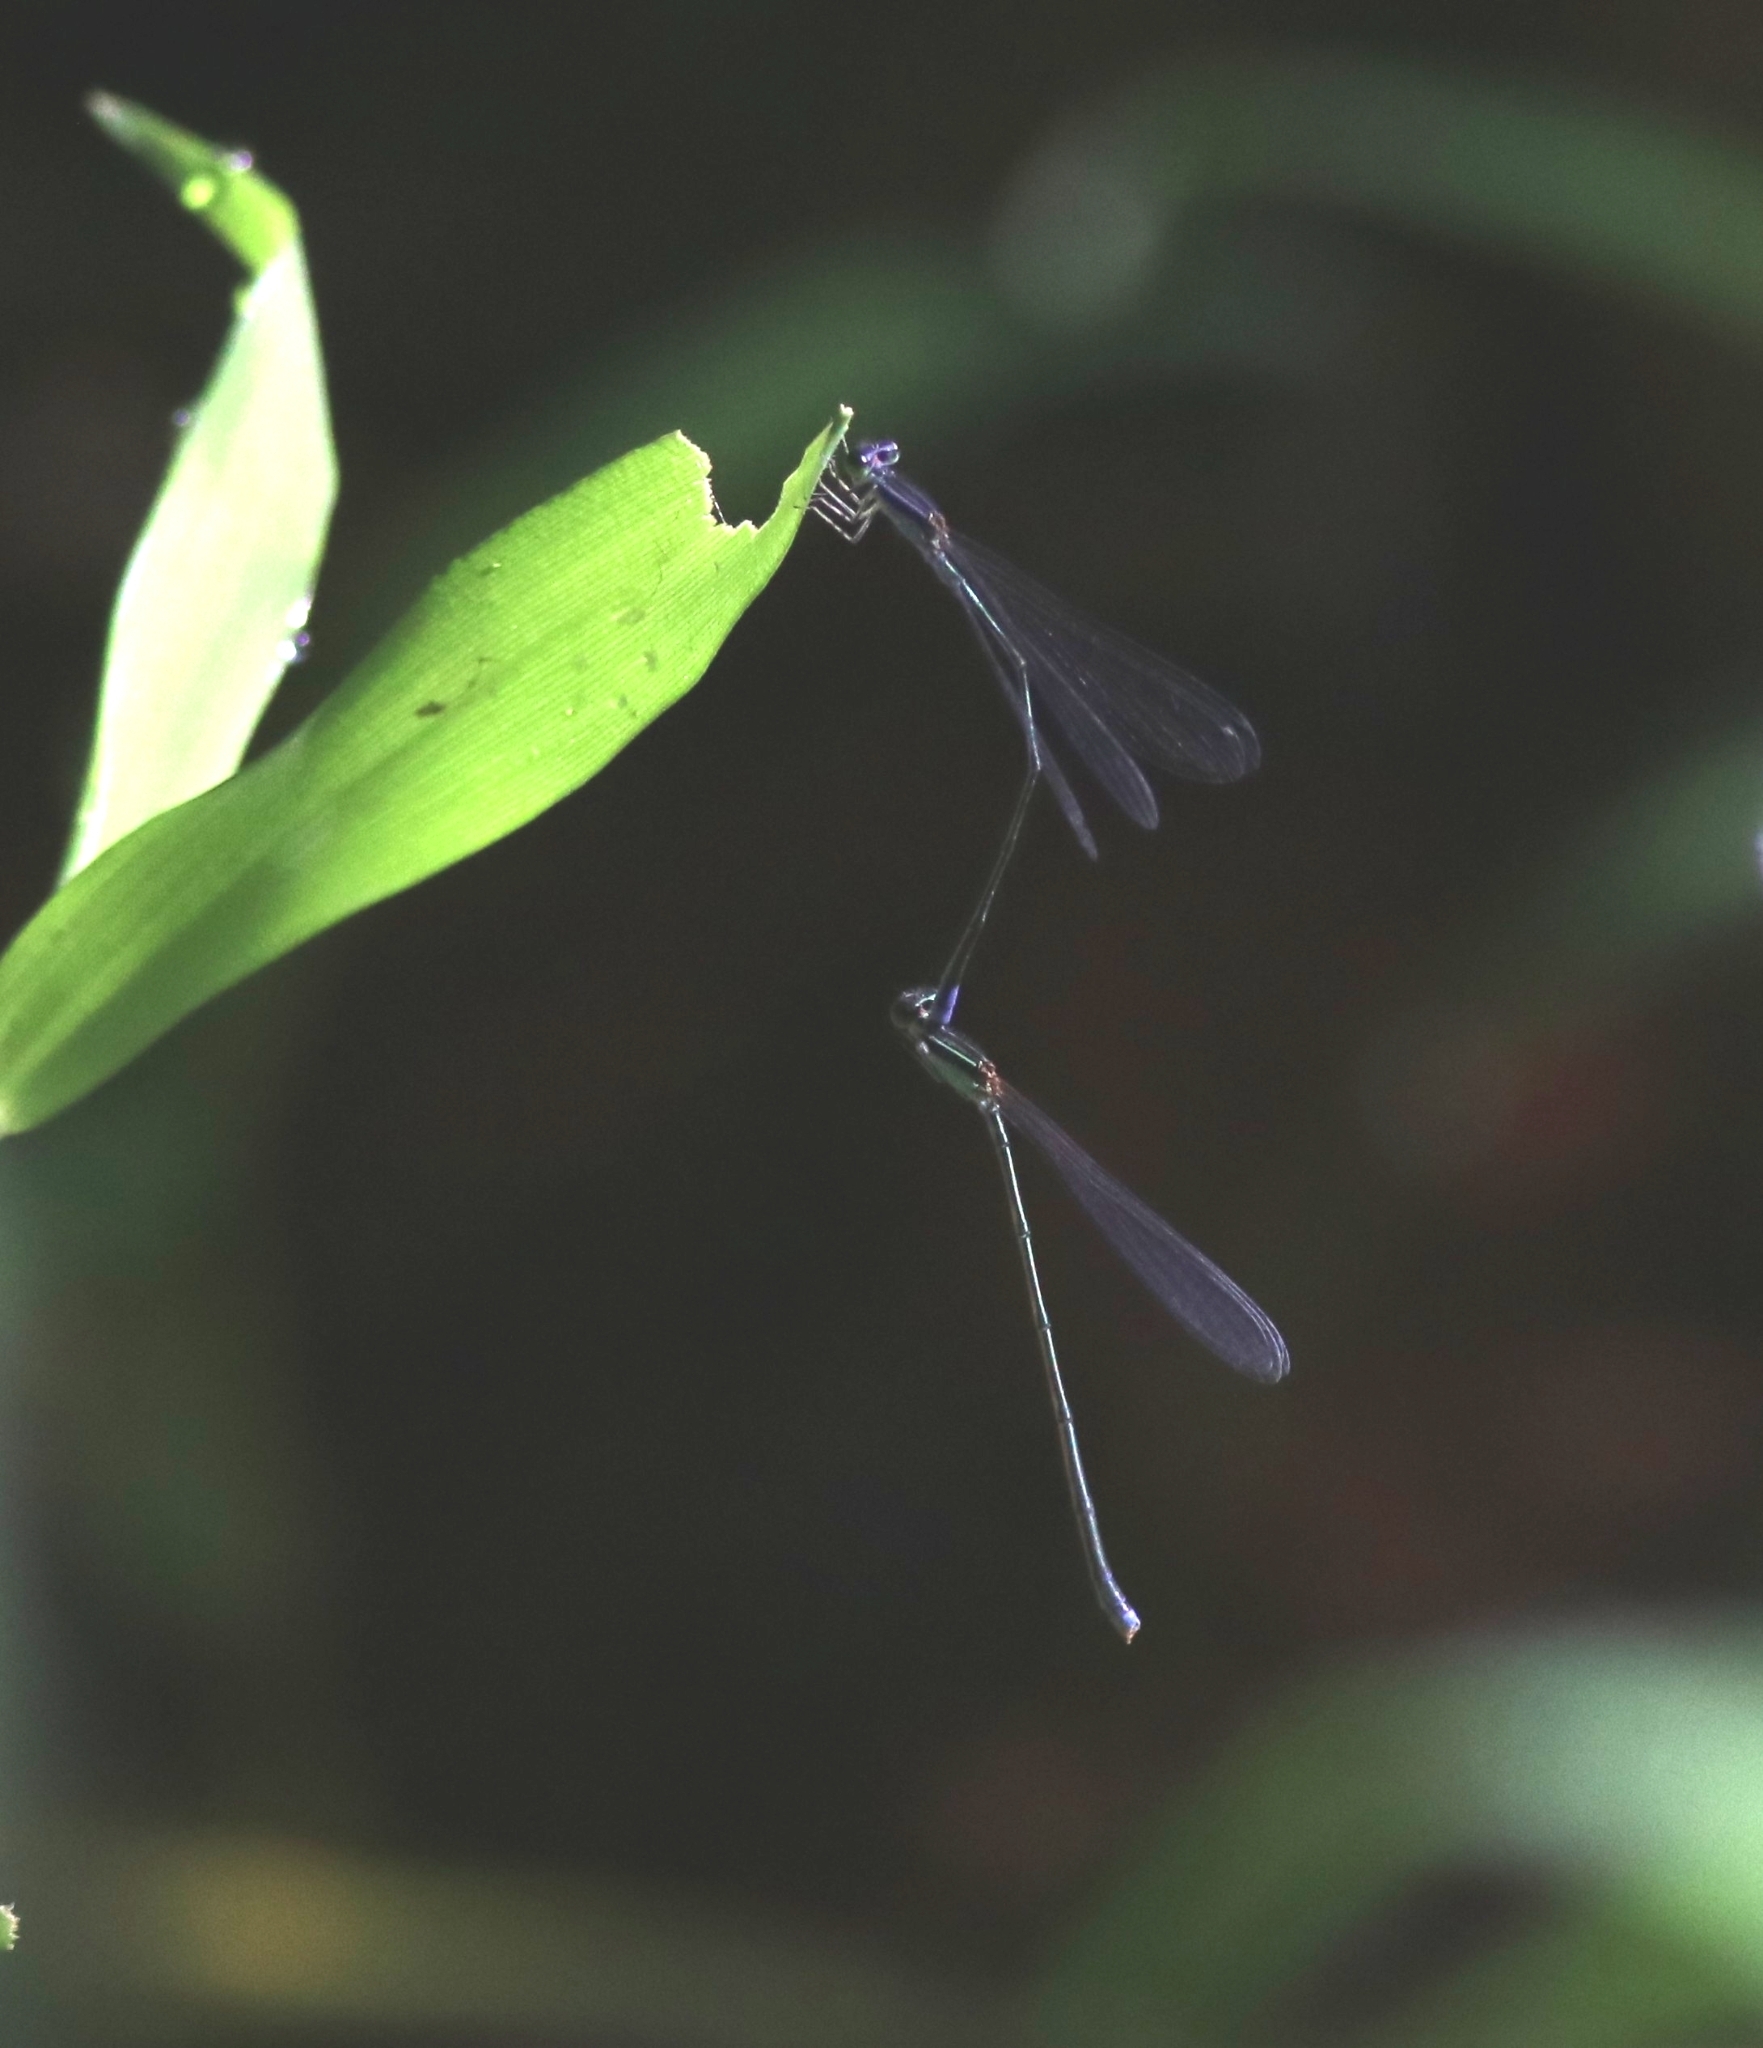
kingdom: Animalia
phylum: Arthropoda
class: Insecta
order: Odonata
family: Coenagrionidae
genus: Aciagrion
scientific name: Aciagrion approximans
